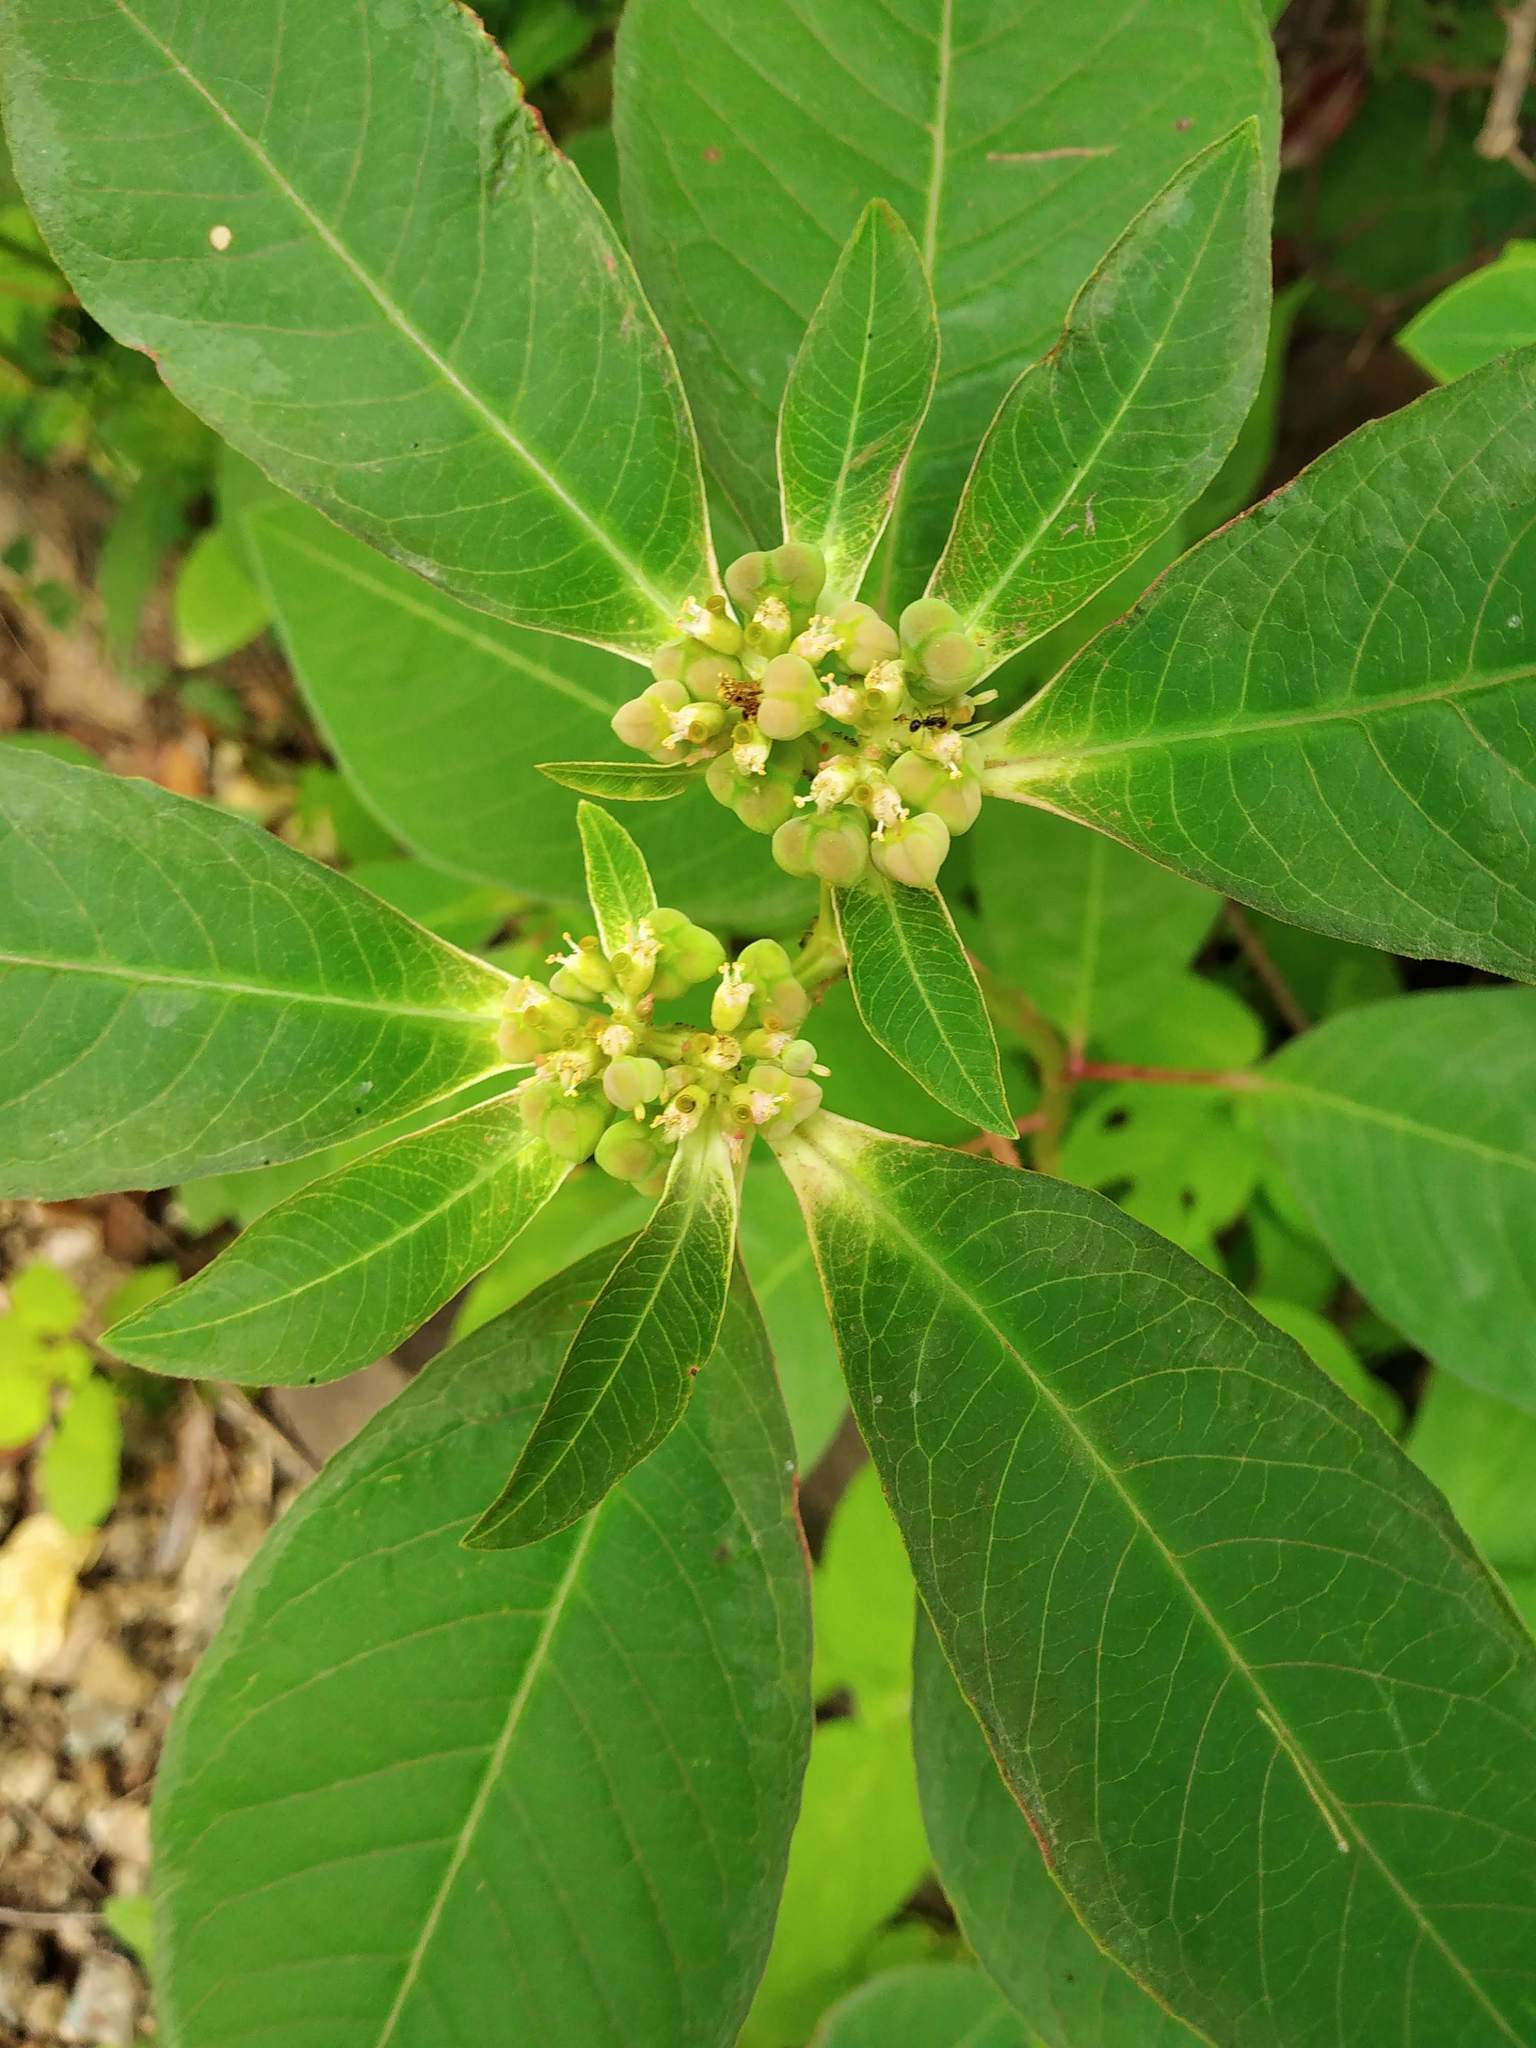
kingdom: Plantae
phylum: Tracheophyta
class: Magnoliopsida
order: Malpighiales
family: Euphorbiaceae
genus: Euphorbia
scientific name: Euphorbia heterophylla
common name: Mexican fireplant
